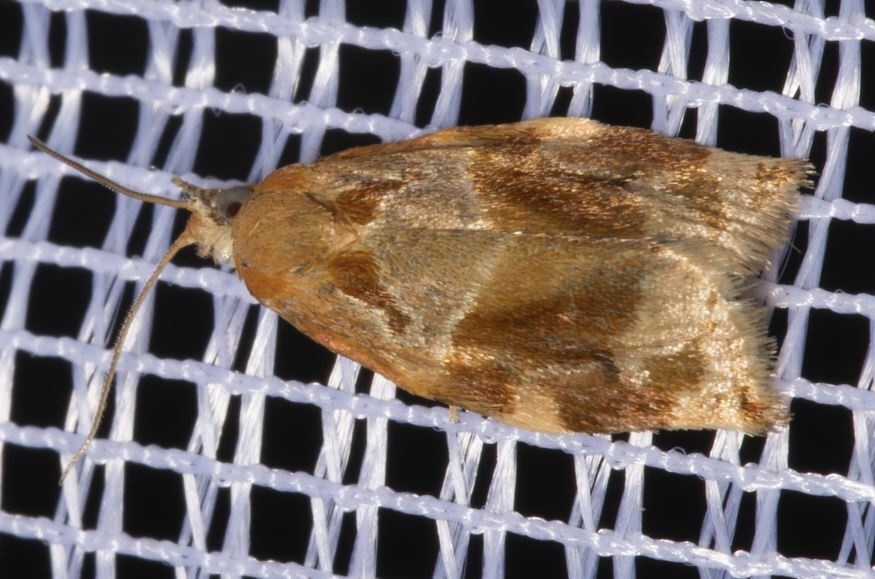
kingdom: Animalia
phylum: Arthropoda
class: Insecta
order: Lepidoptera
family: Tortricidae
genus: Archips
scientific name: Archips xylosteana
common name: Variegated golden tortrix
